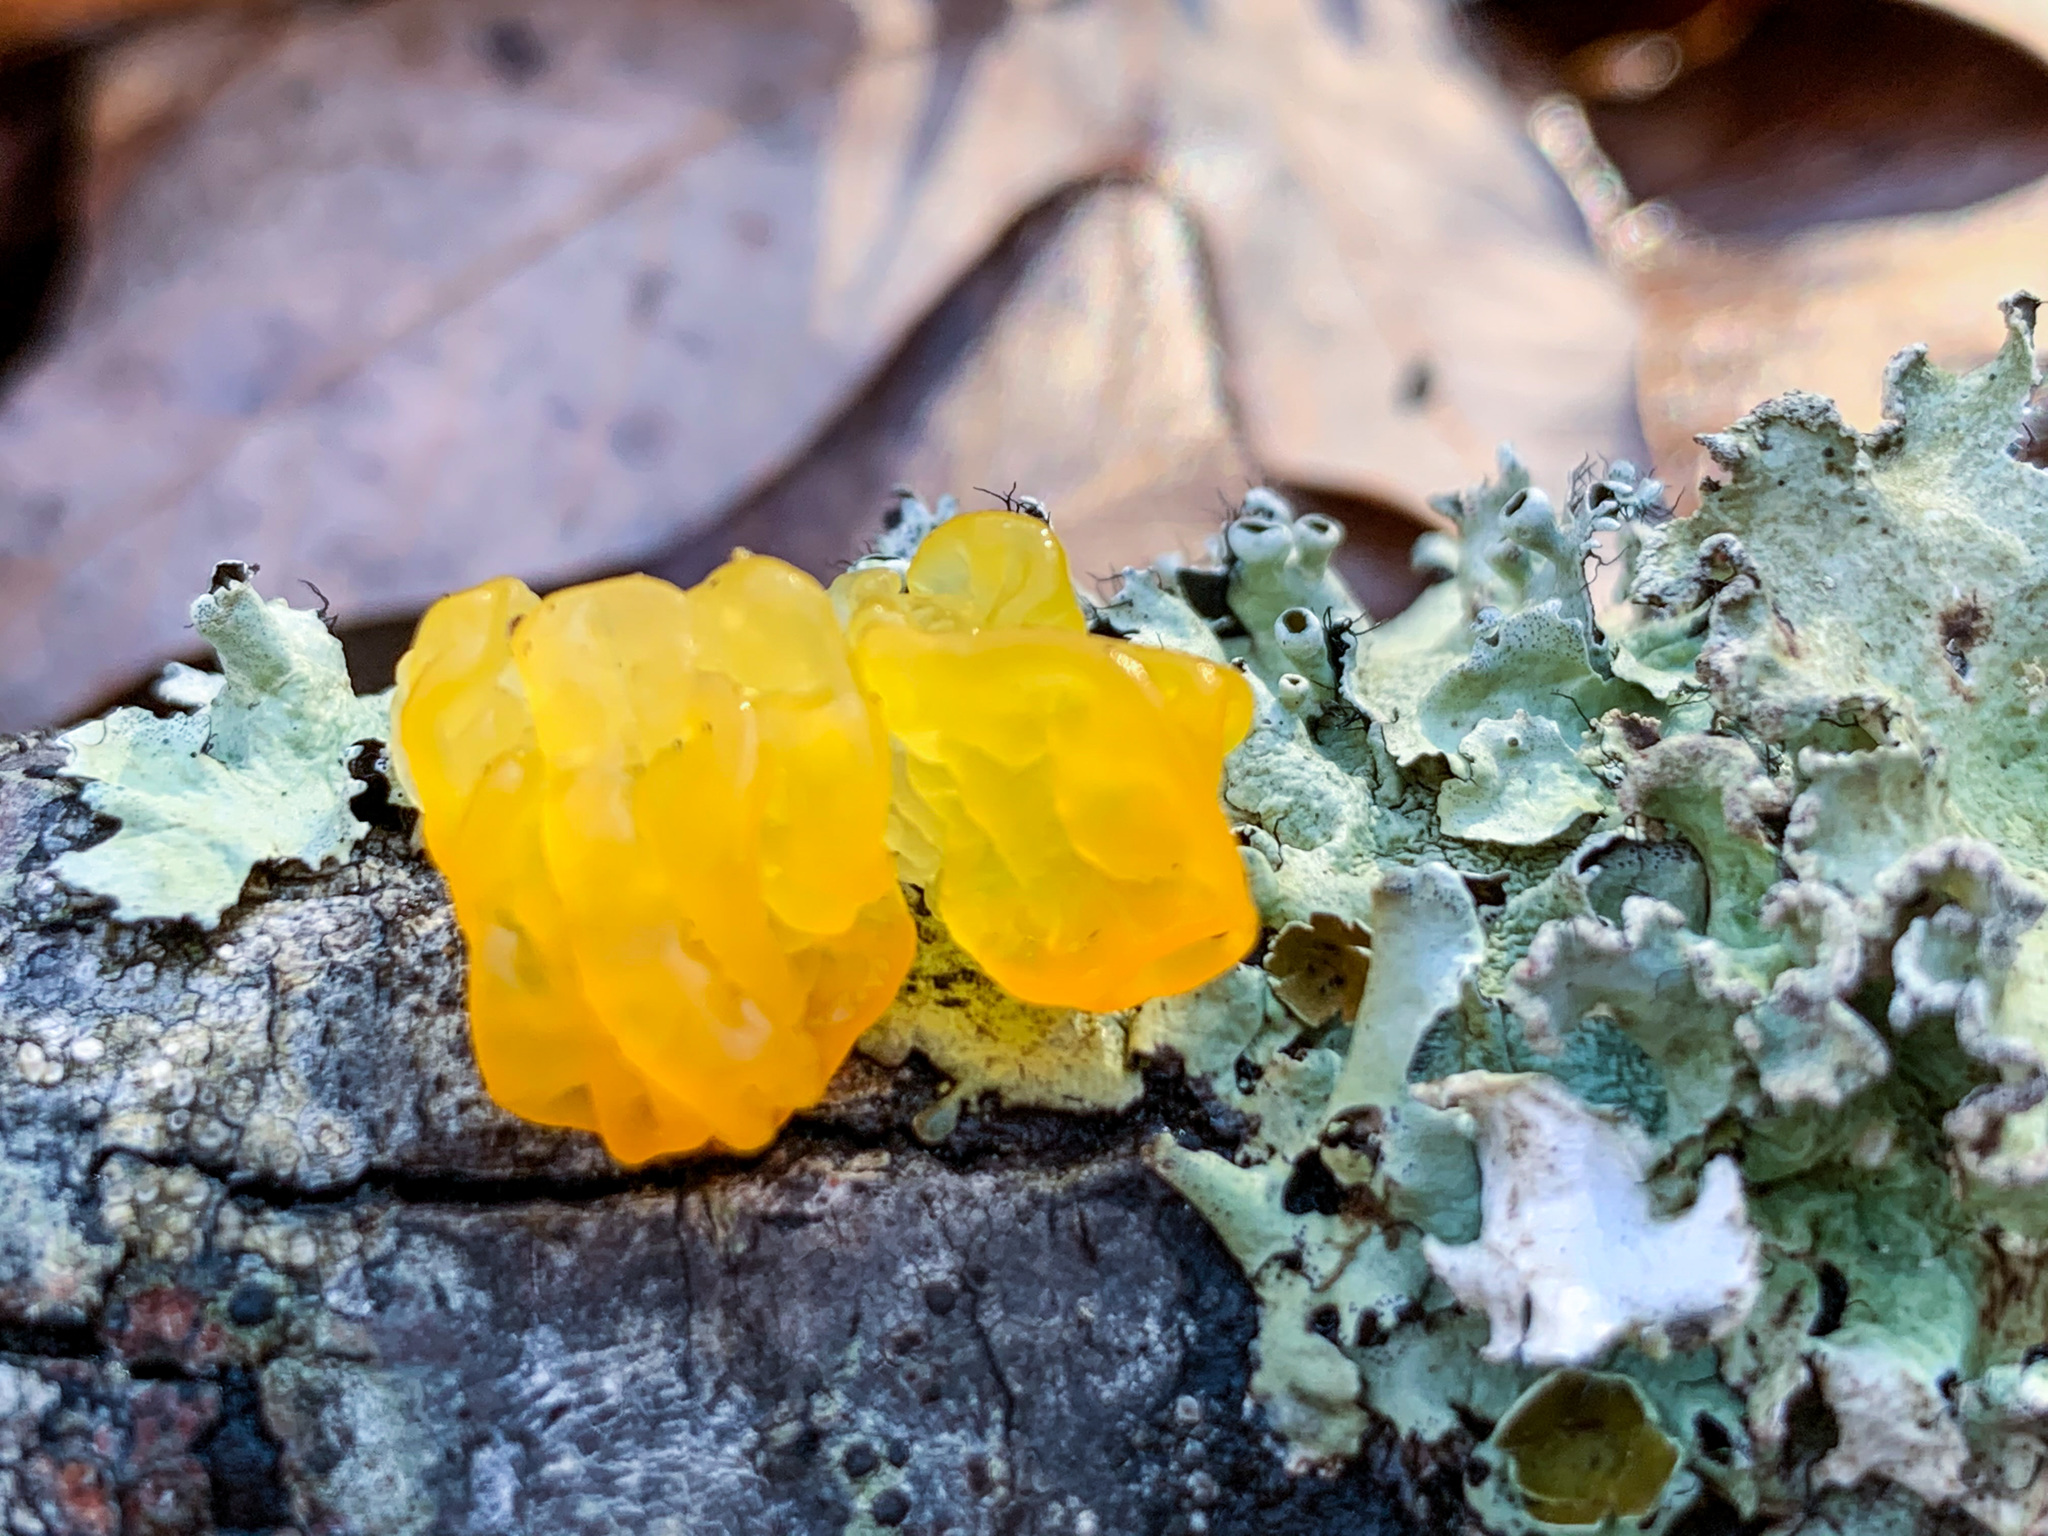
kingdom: Fungi
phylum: Basidiomycota
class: Tremellomycetes
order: Tremellales
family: Tremellaceae
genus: Tremella
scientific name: Tremella mesenterica
